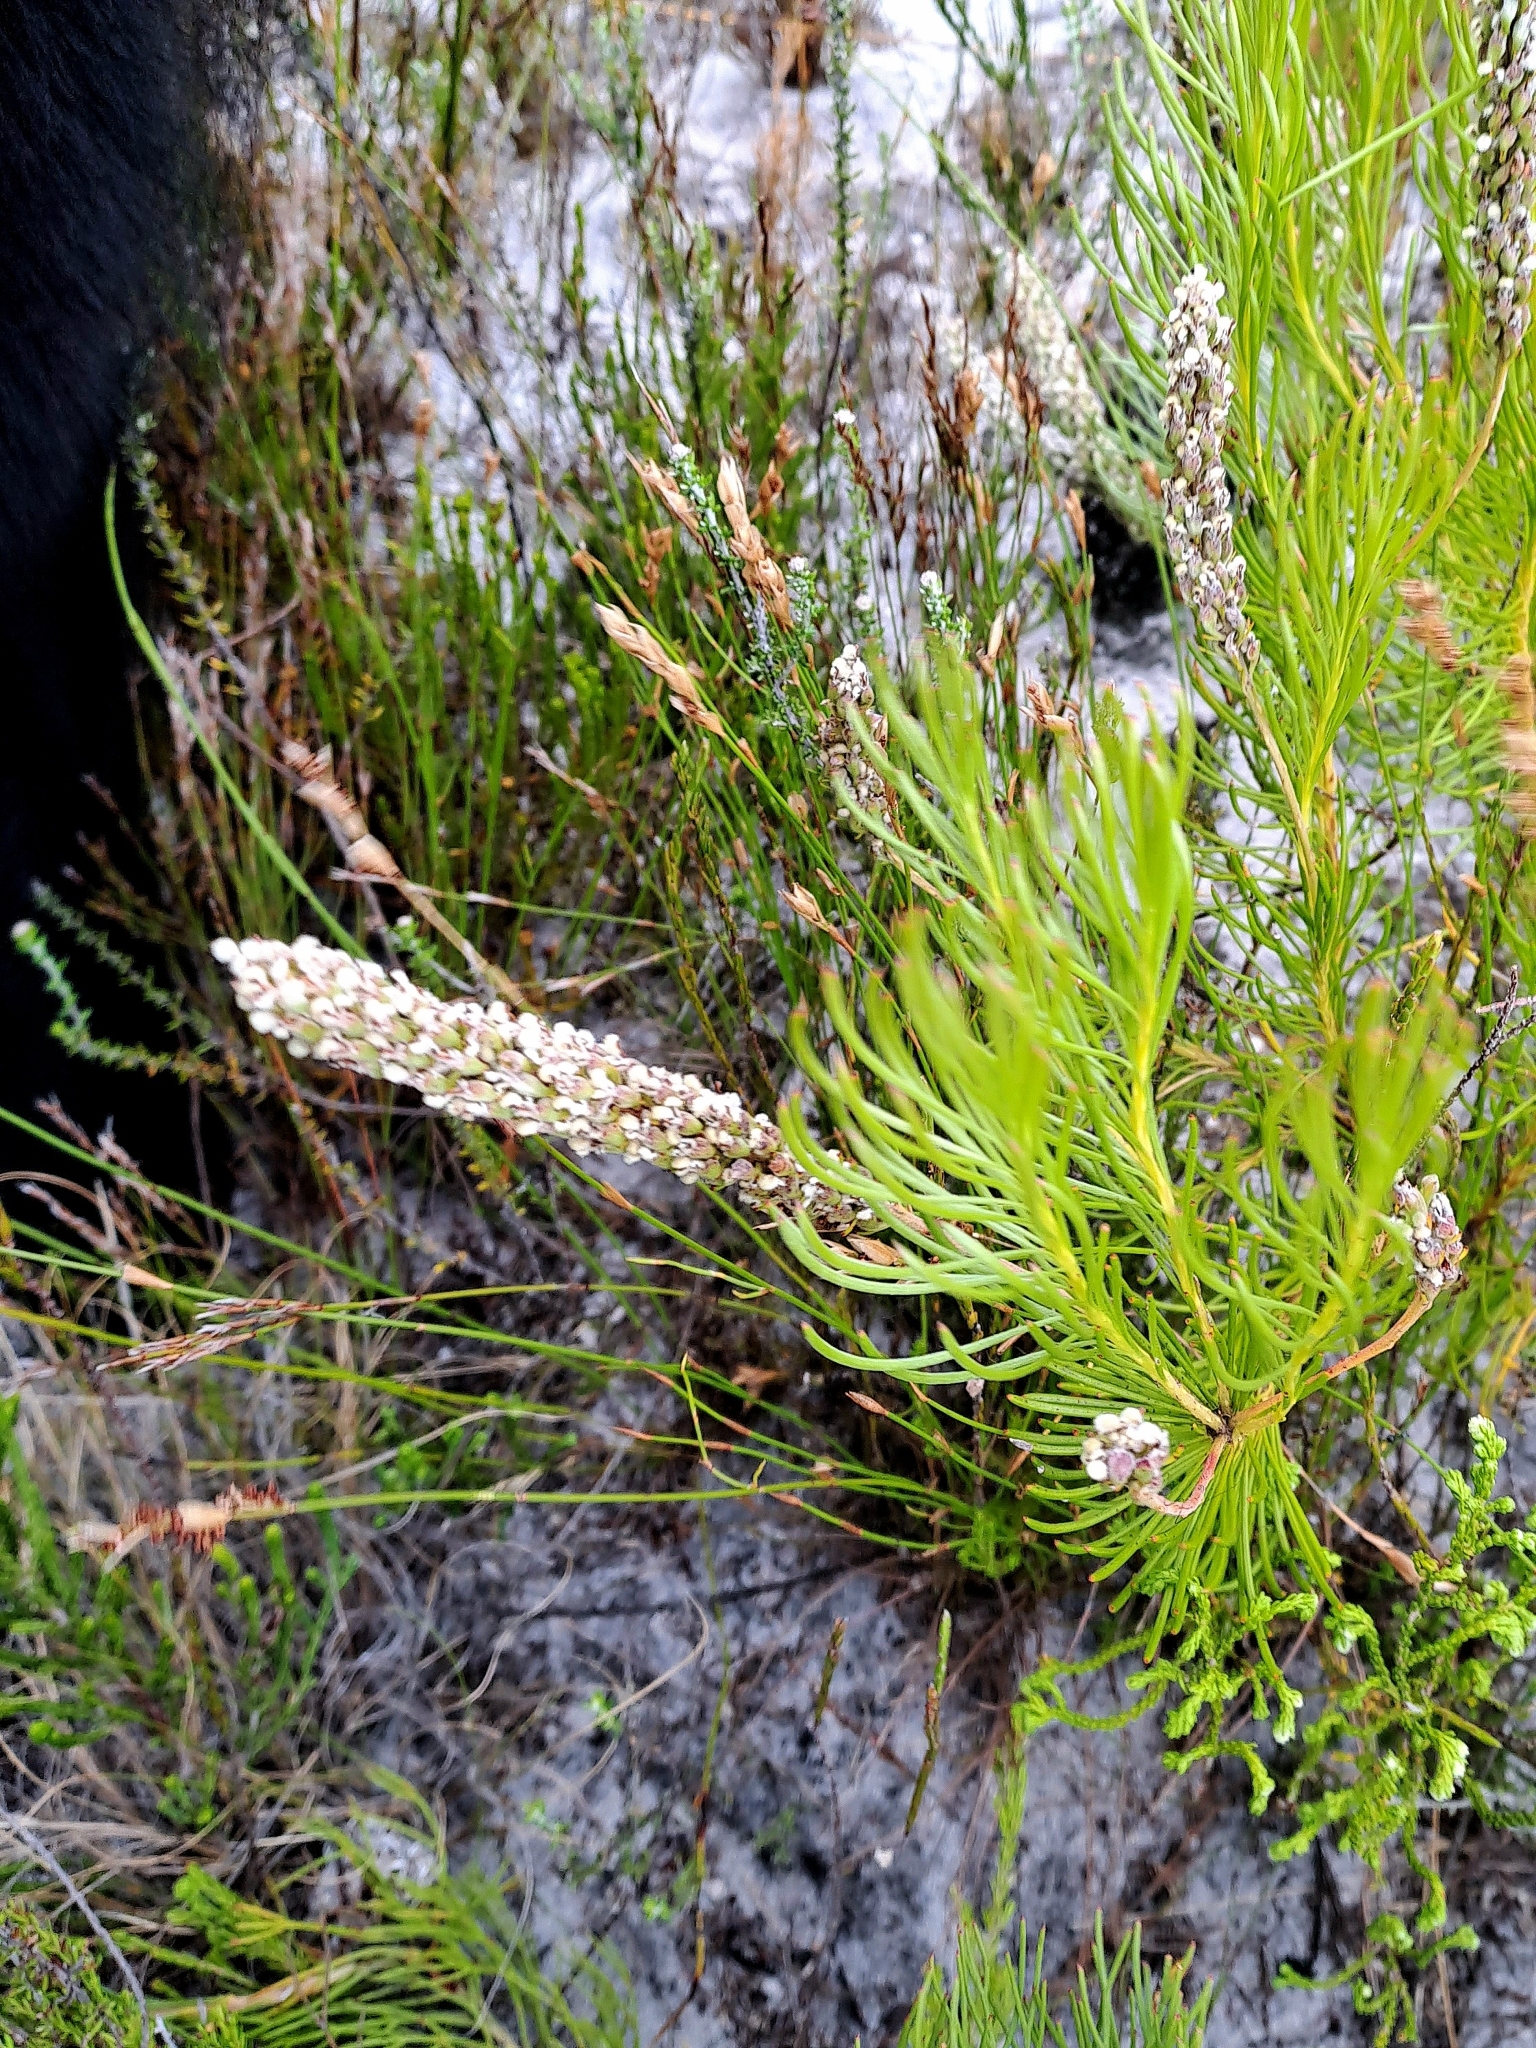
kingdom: Plantae
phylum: Tracheophyta
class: Magnoliopsida
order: Proteales
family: Proteaceae
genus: Spatalla
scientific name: Spatalla curvifolia
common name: White-stalked spoon
